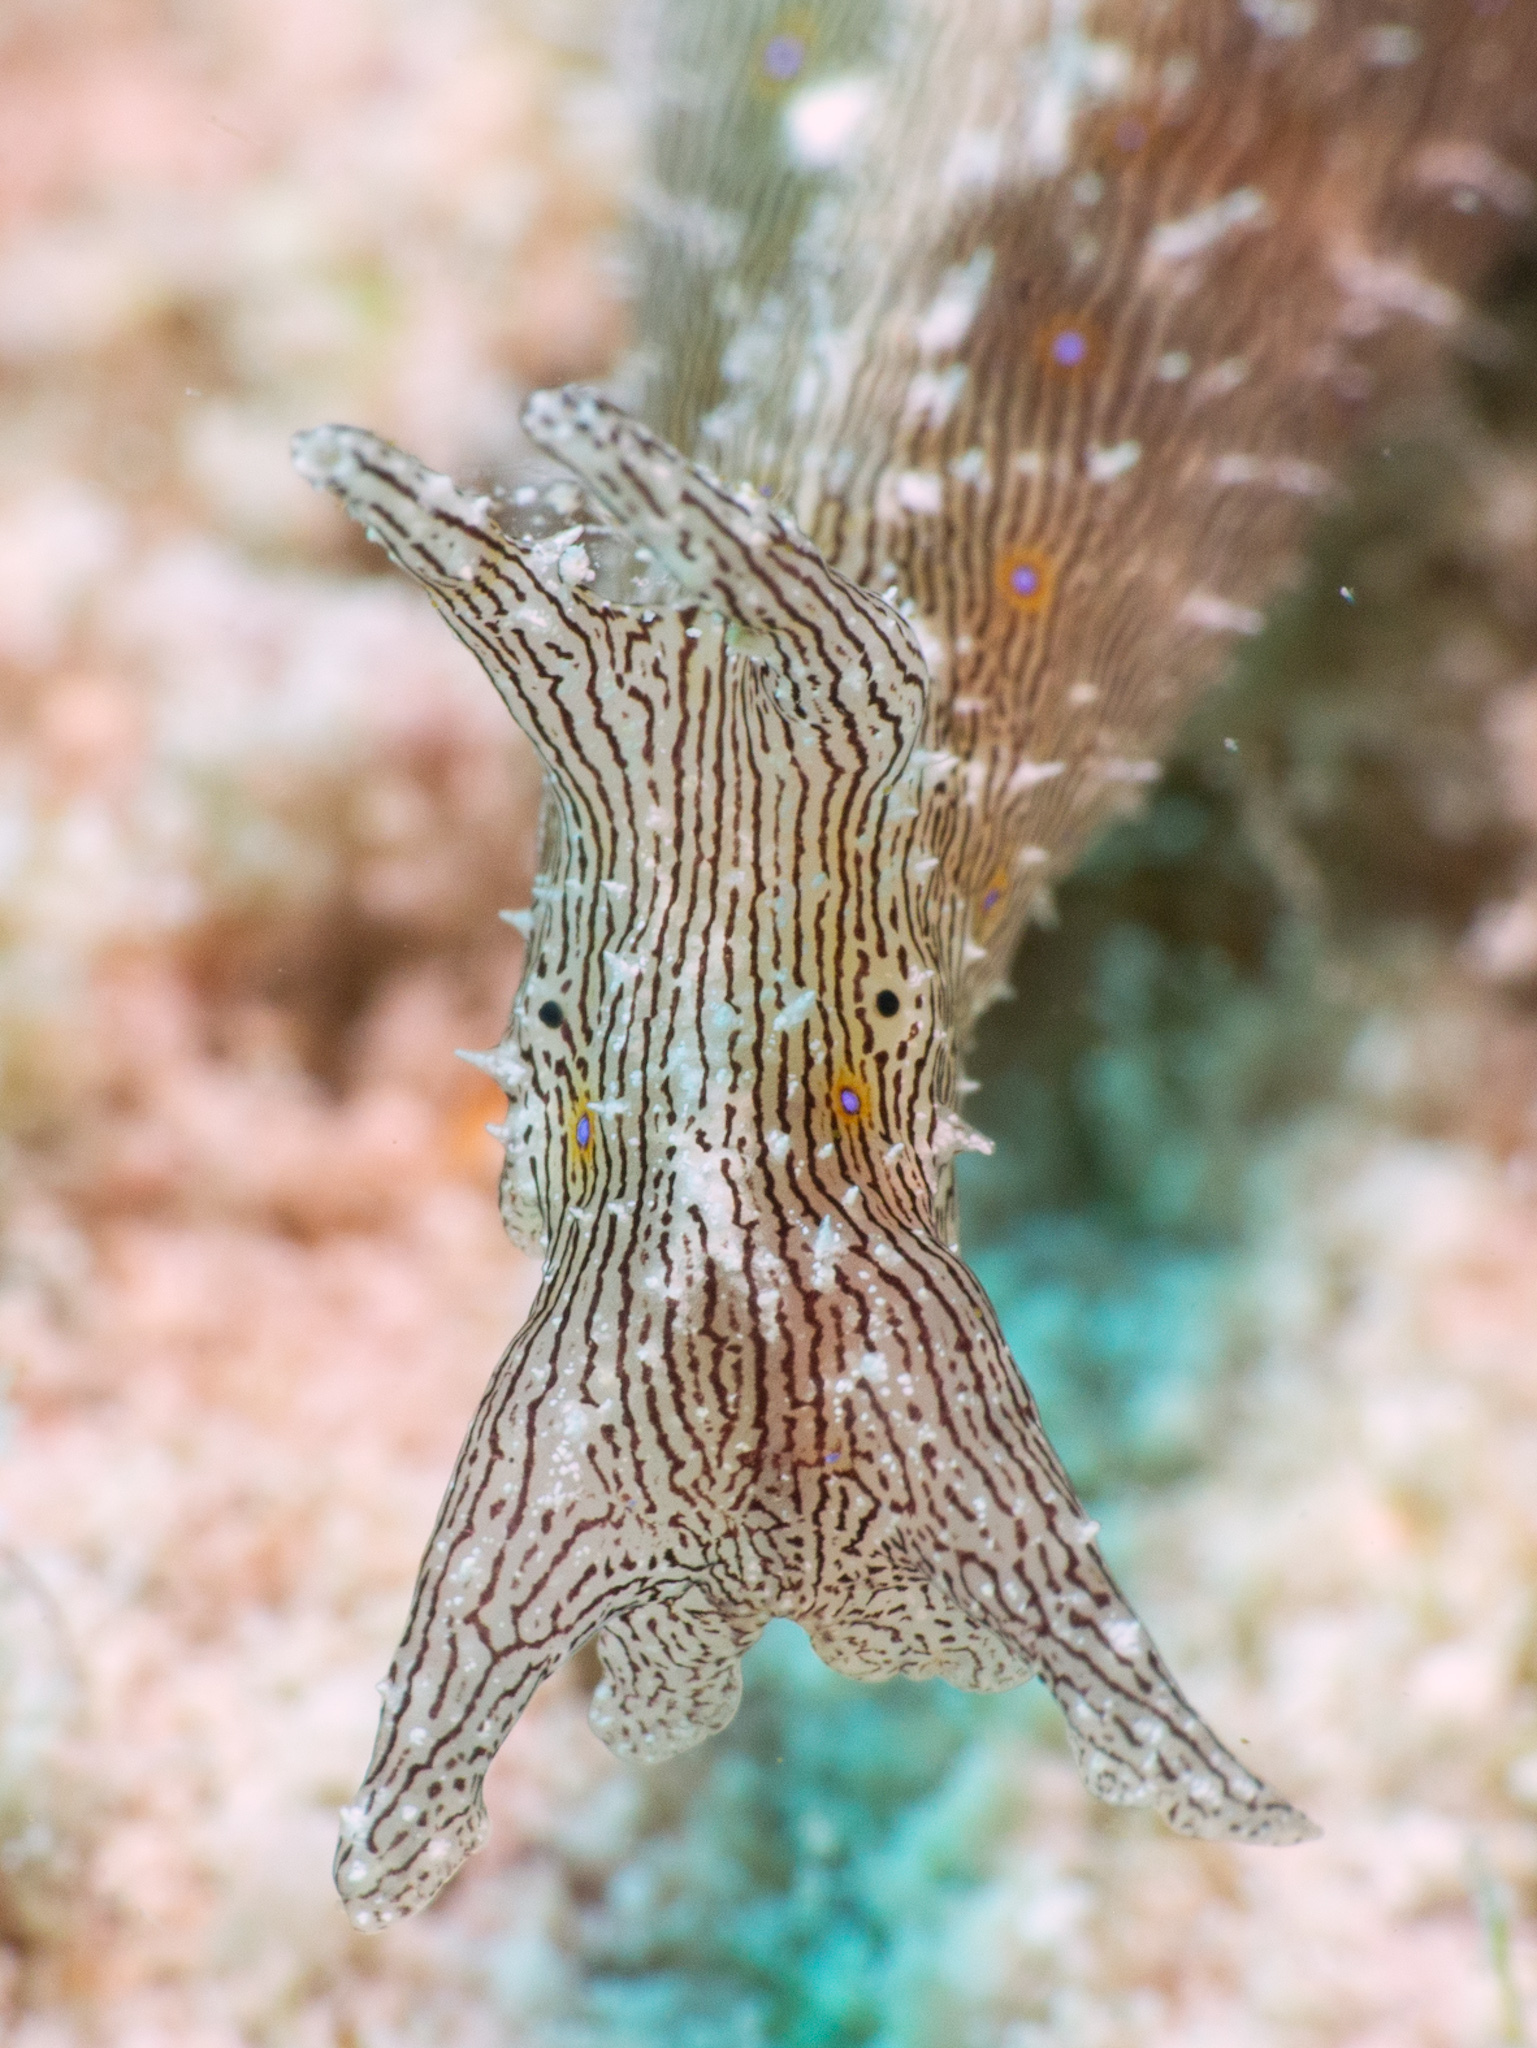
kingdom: Animalia
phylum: Mollusca
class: Gastropoda
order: Aplysiida
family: Aplysiidae
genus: Stylocheilus
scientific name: Stylocheilus polyomma
